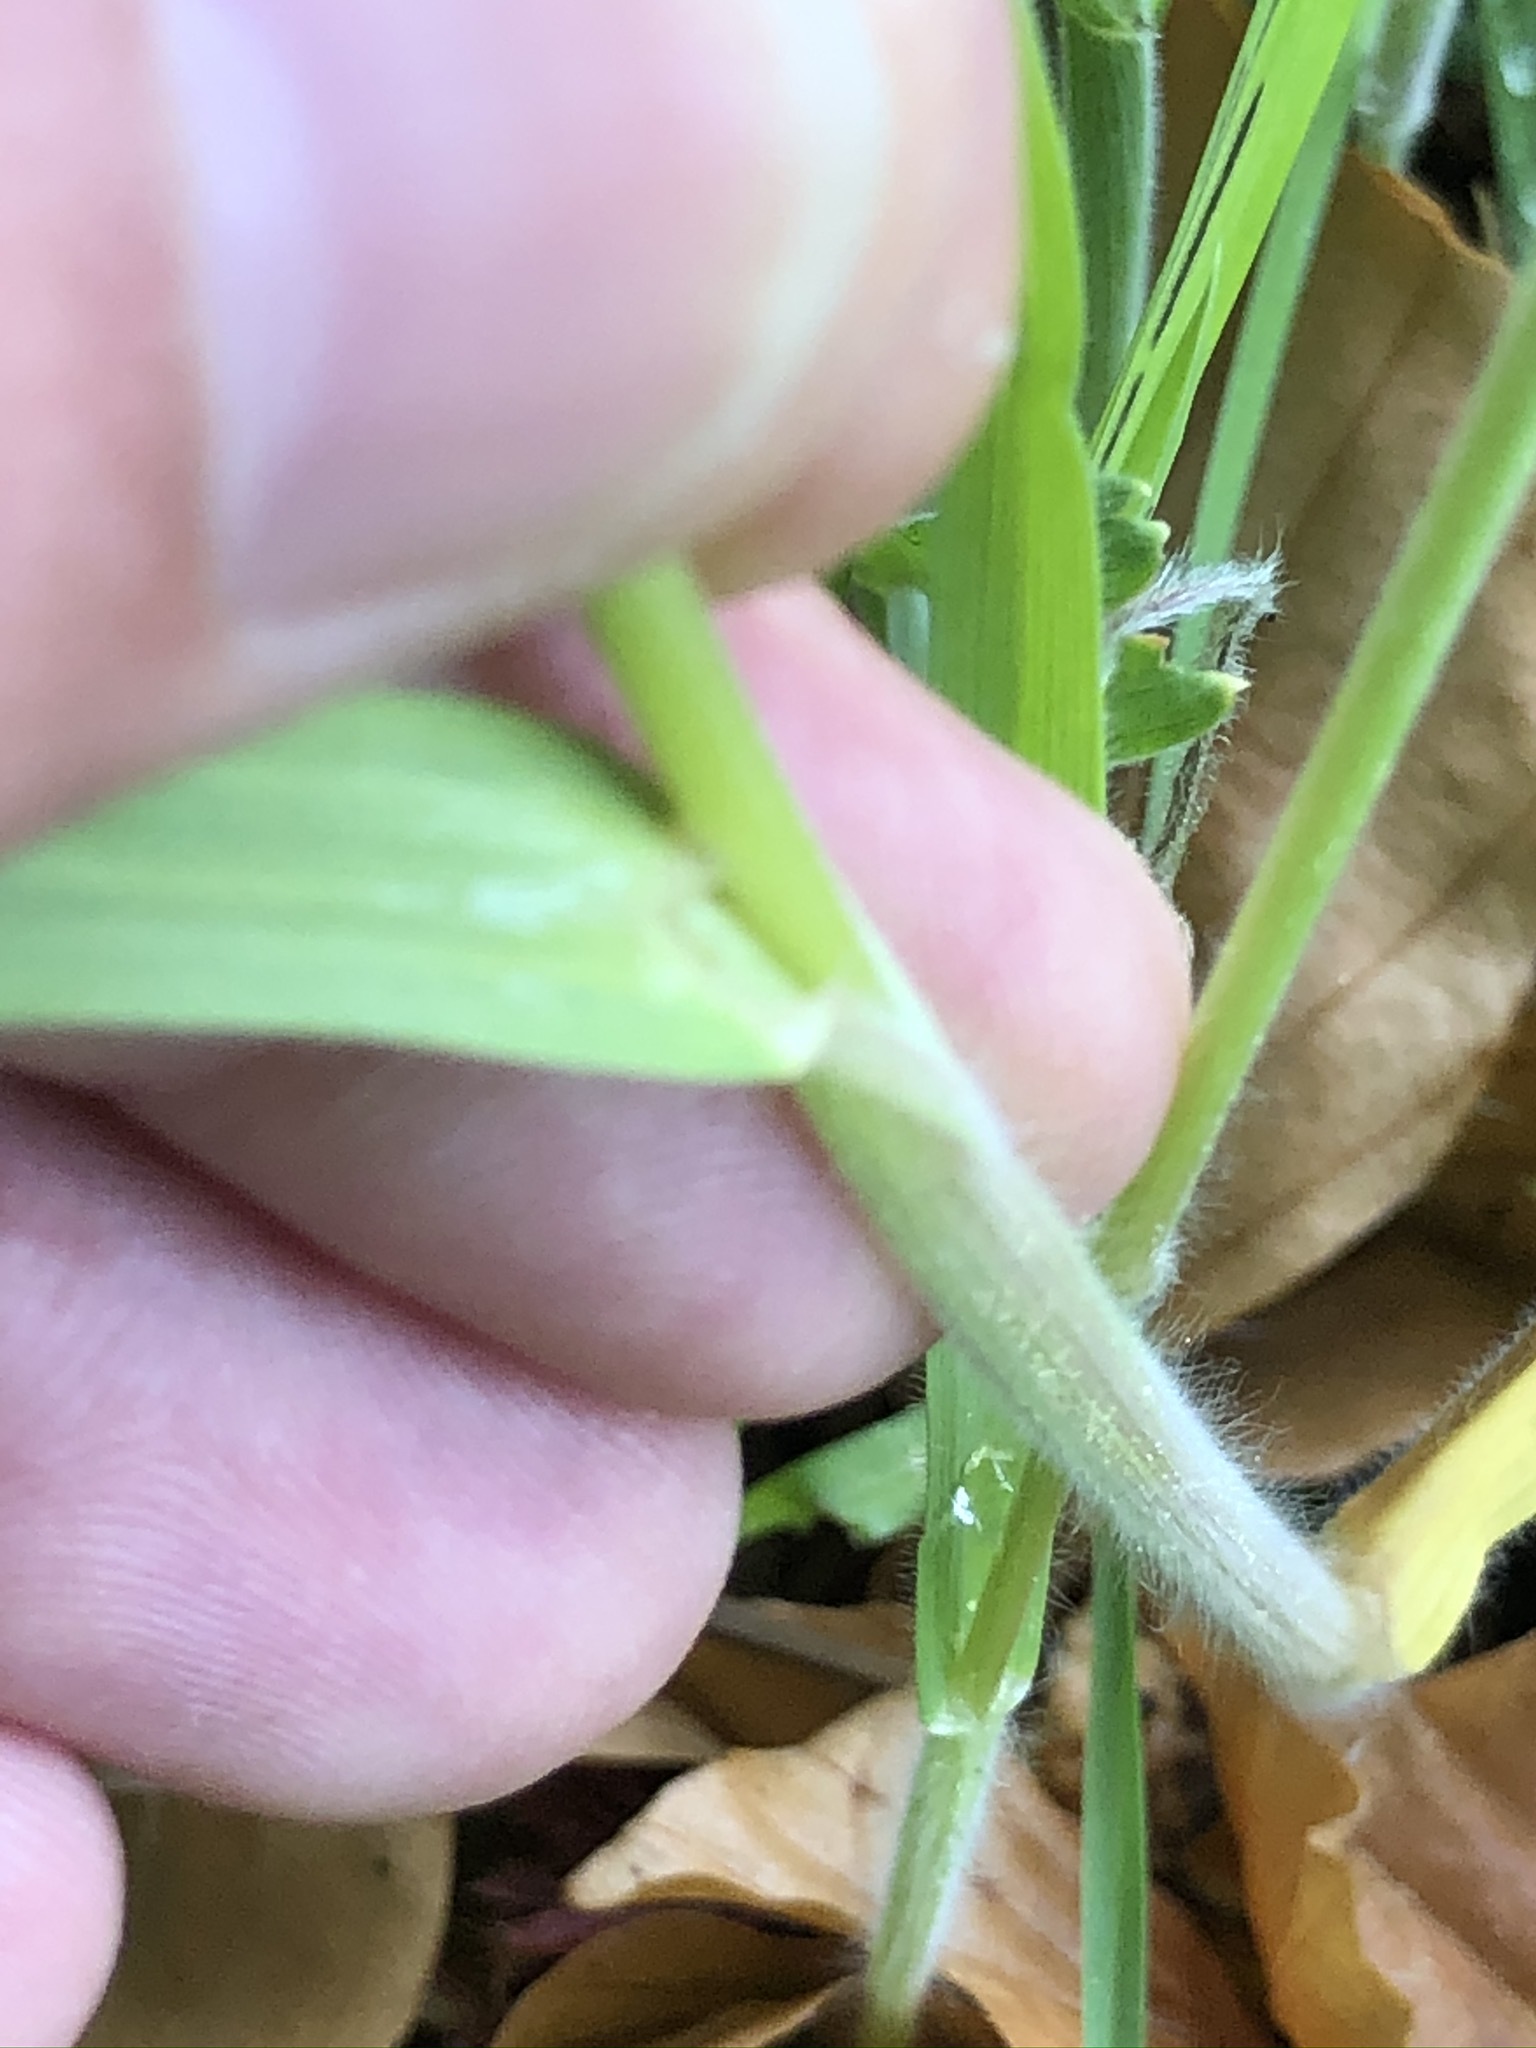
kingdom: Plantae
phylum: Tracheophyta
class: Liliopsida
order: Poales
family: Poaceae
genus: Bromus
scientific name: Bromus hordeaceus
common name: Soft brome
